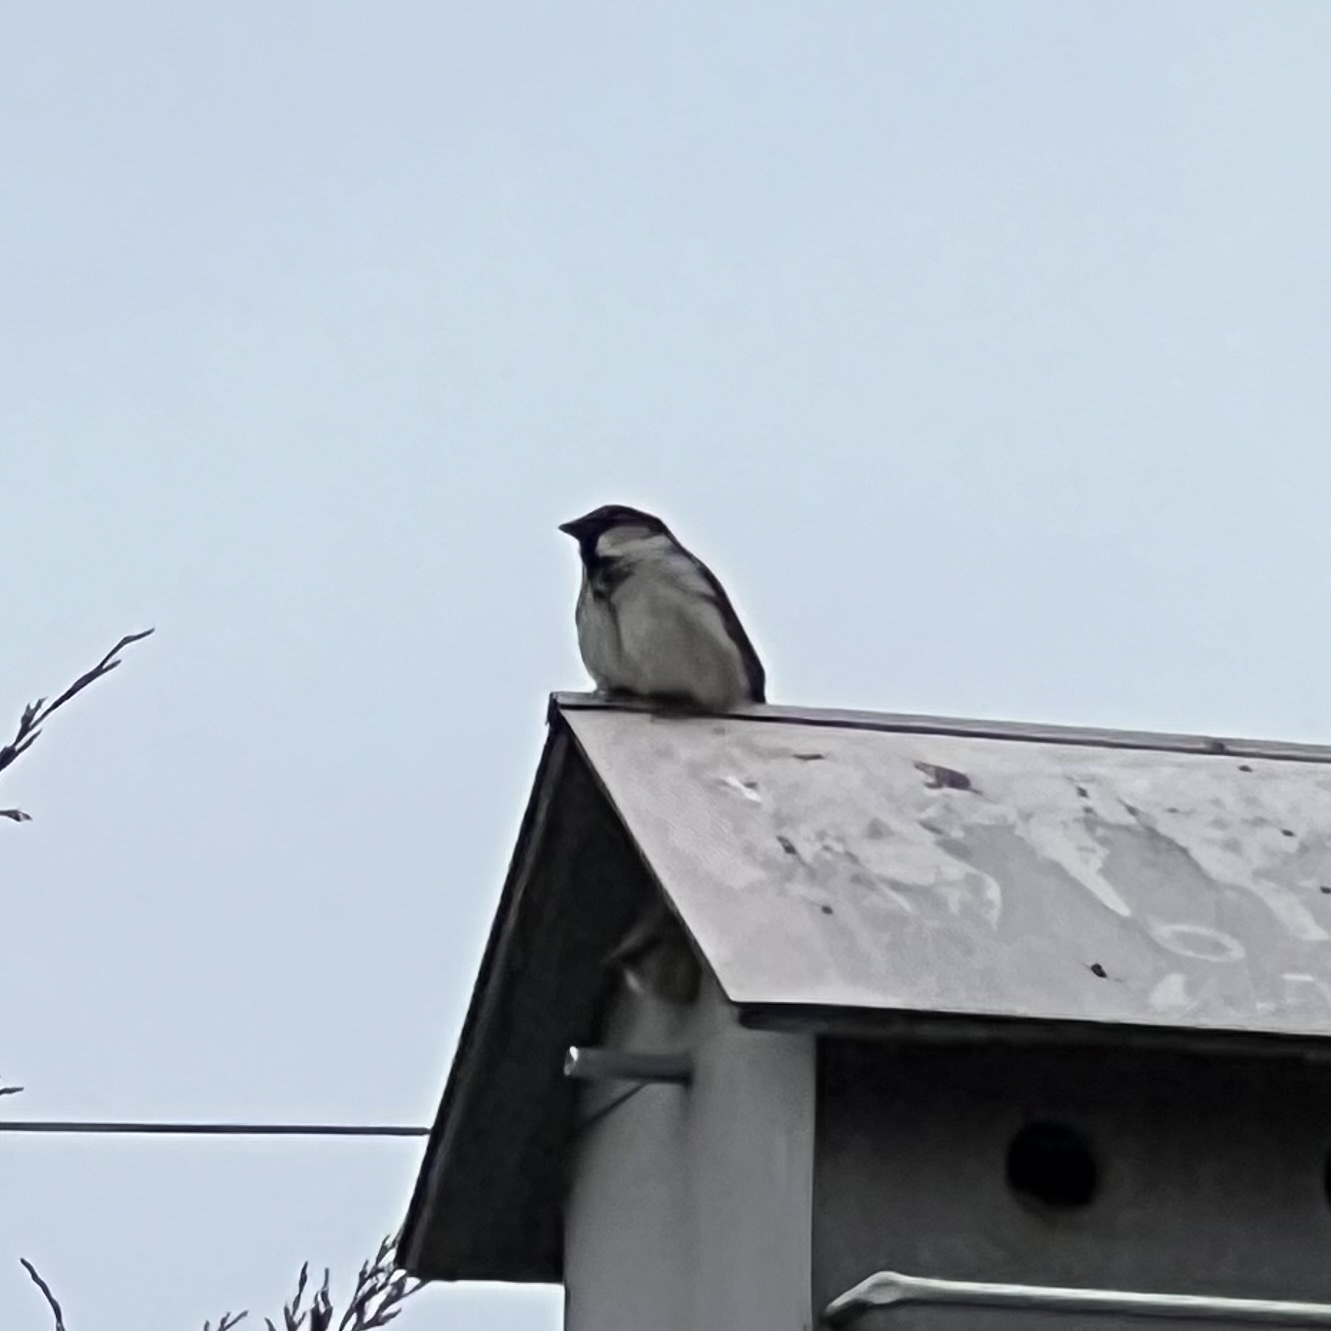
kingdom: Animalia
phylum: Chordata
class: Aves
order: Passeriformes
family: Passeridae
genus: Passer
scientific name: Passer domesticus
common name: House sparrow
